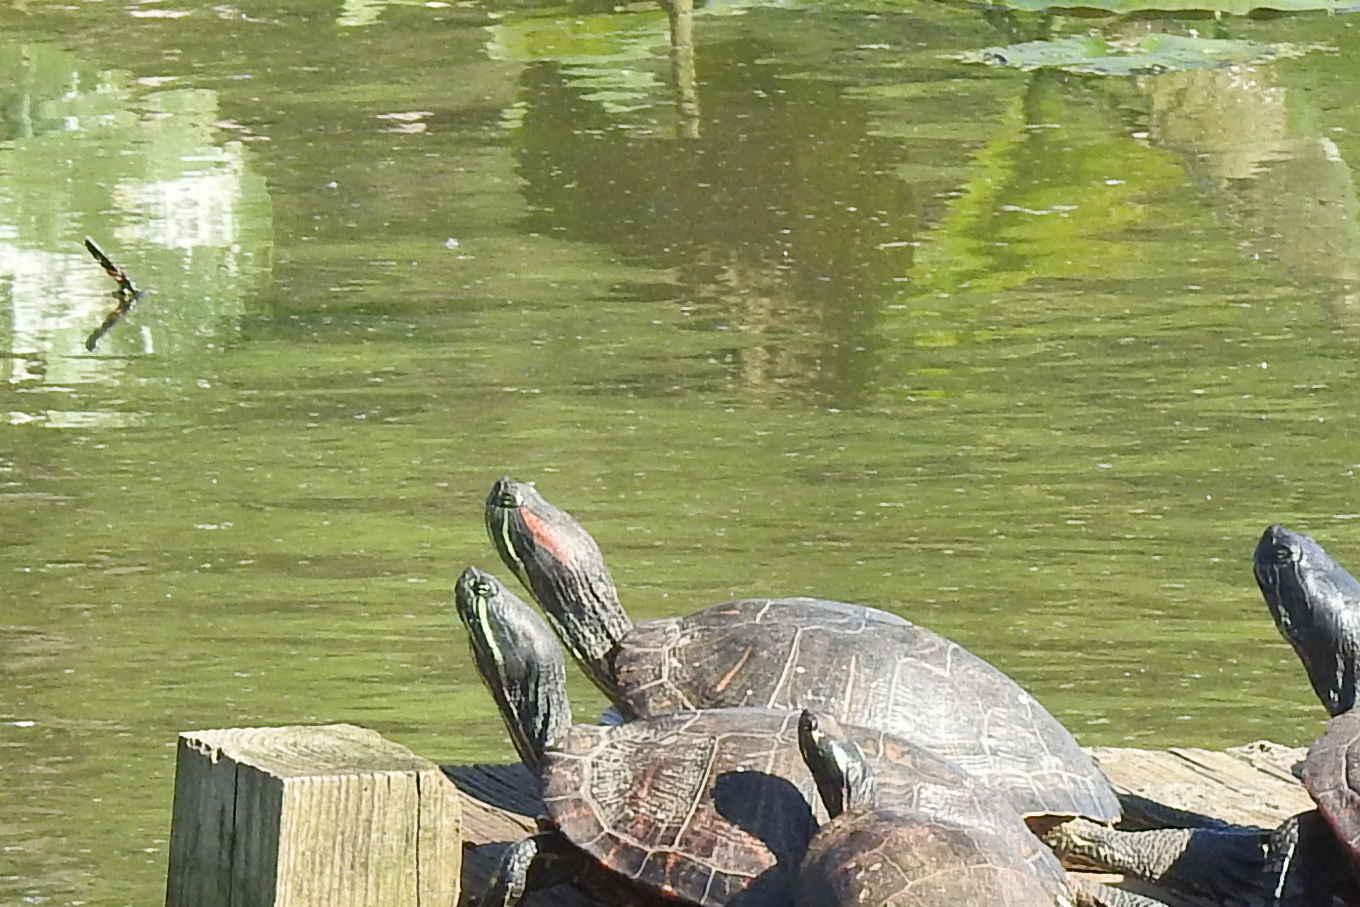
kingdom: Animalia
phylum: Chordata
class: Testudines
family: Emydidae
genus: Trachemys
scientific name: Trachemys scripta
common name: Slider
